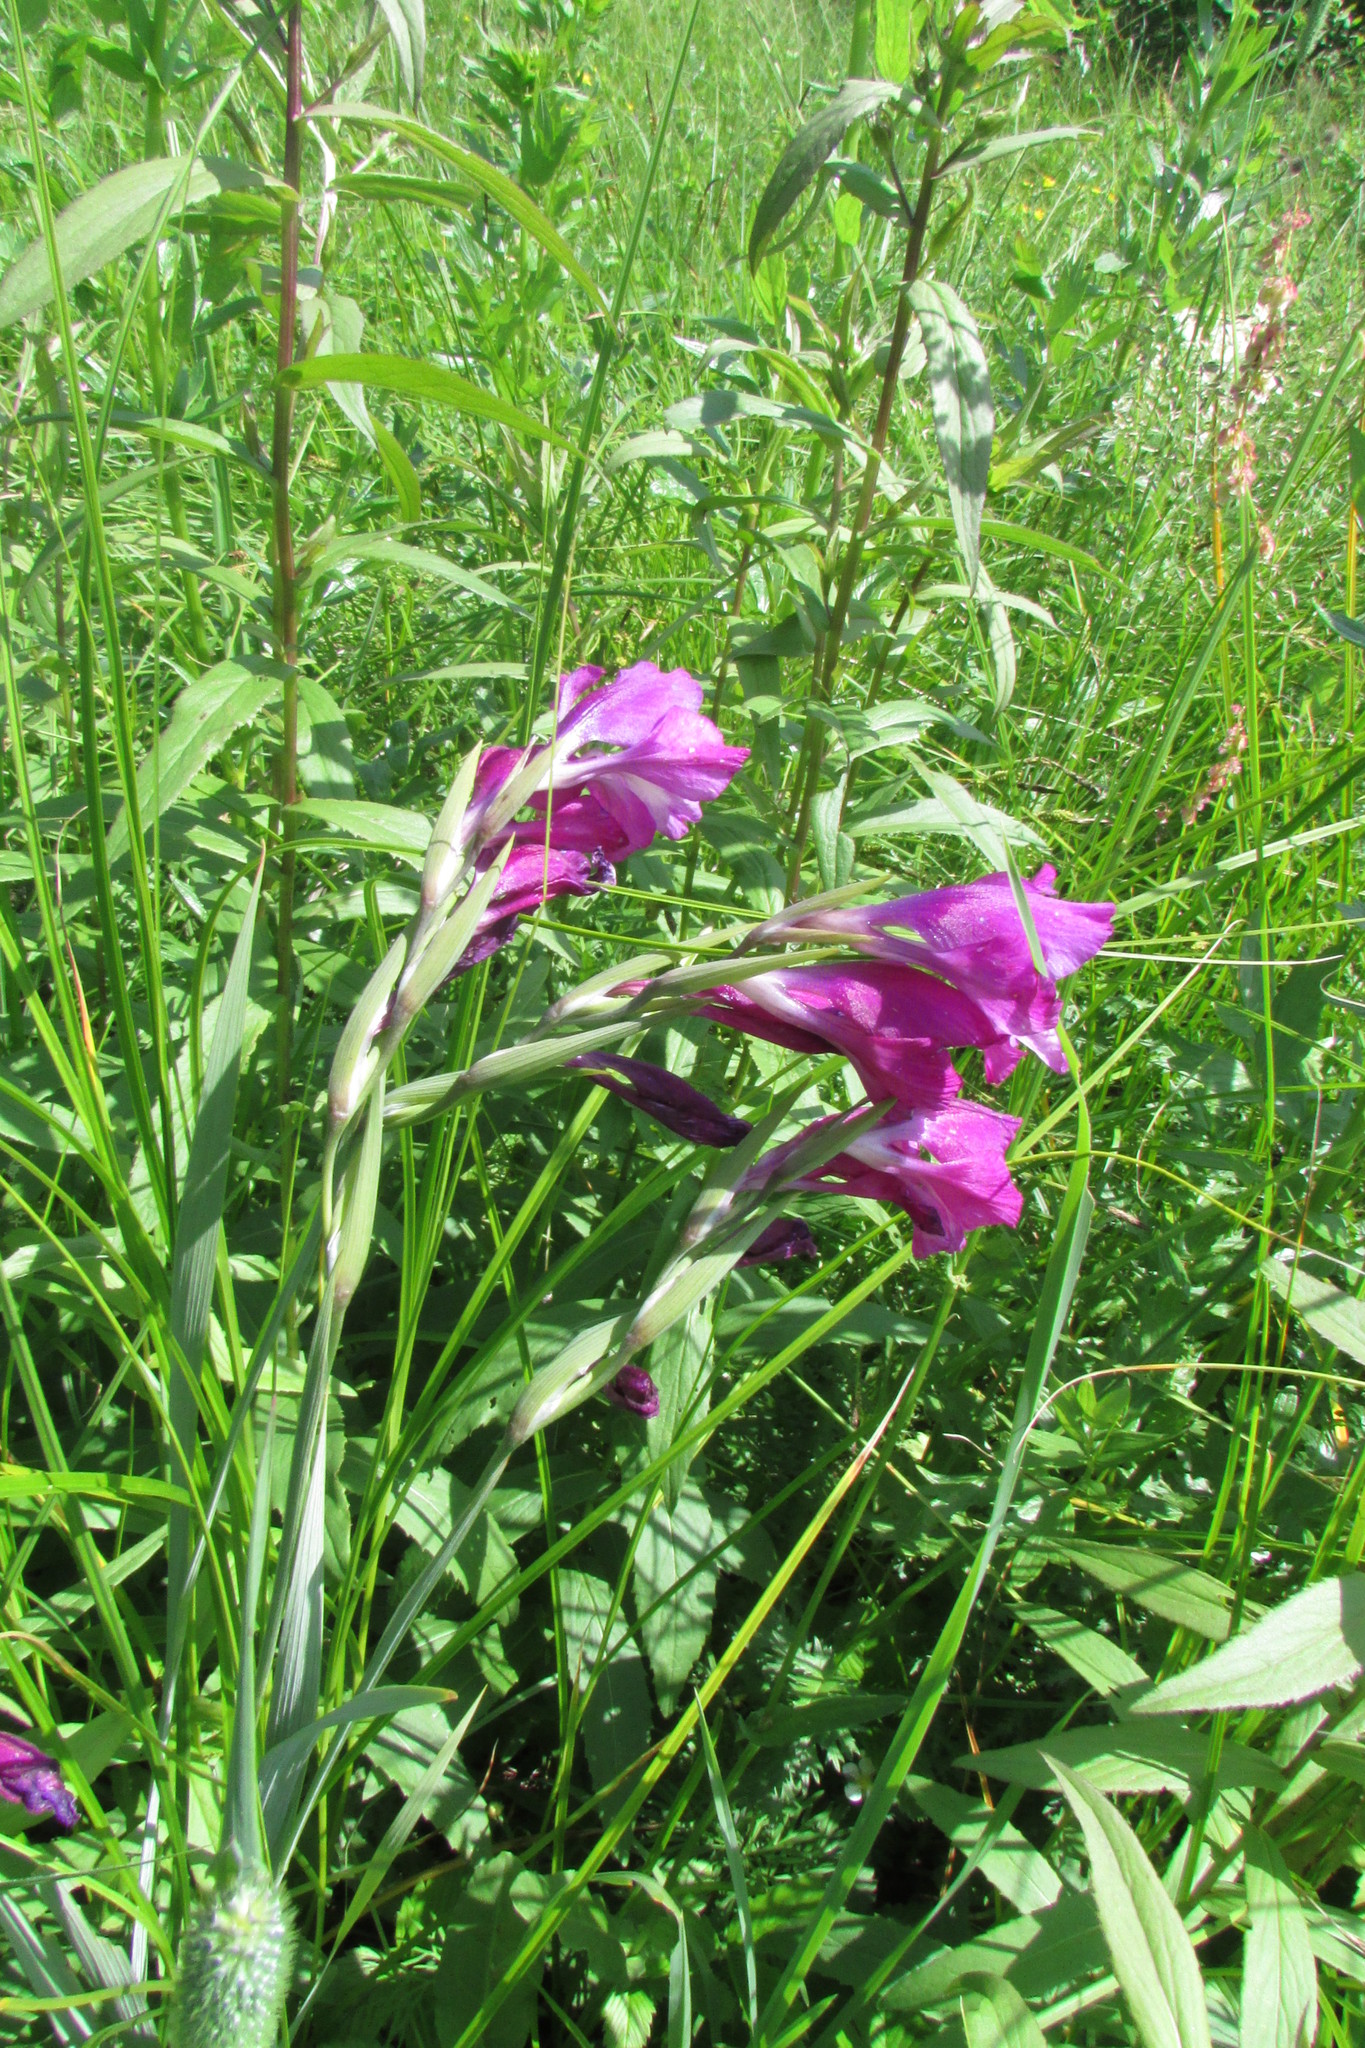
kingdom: Plantae
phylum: Tracheophyta
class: Liliopsida
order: Asparagales
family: Iridaceae
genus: Gladiolus
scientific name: Gladiolus tenuis
